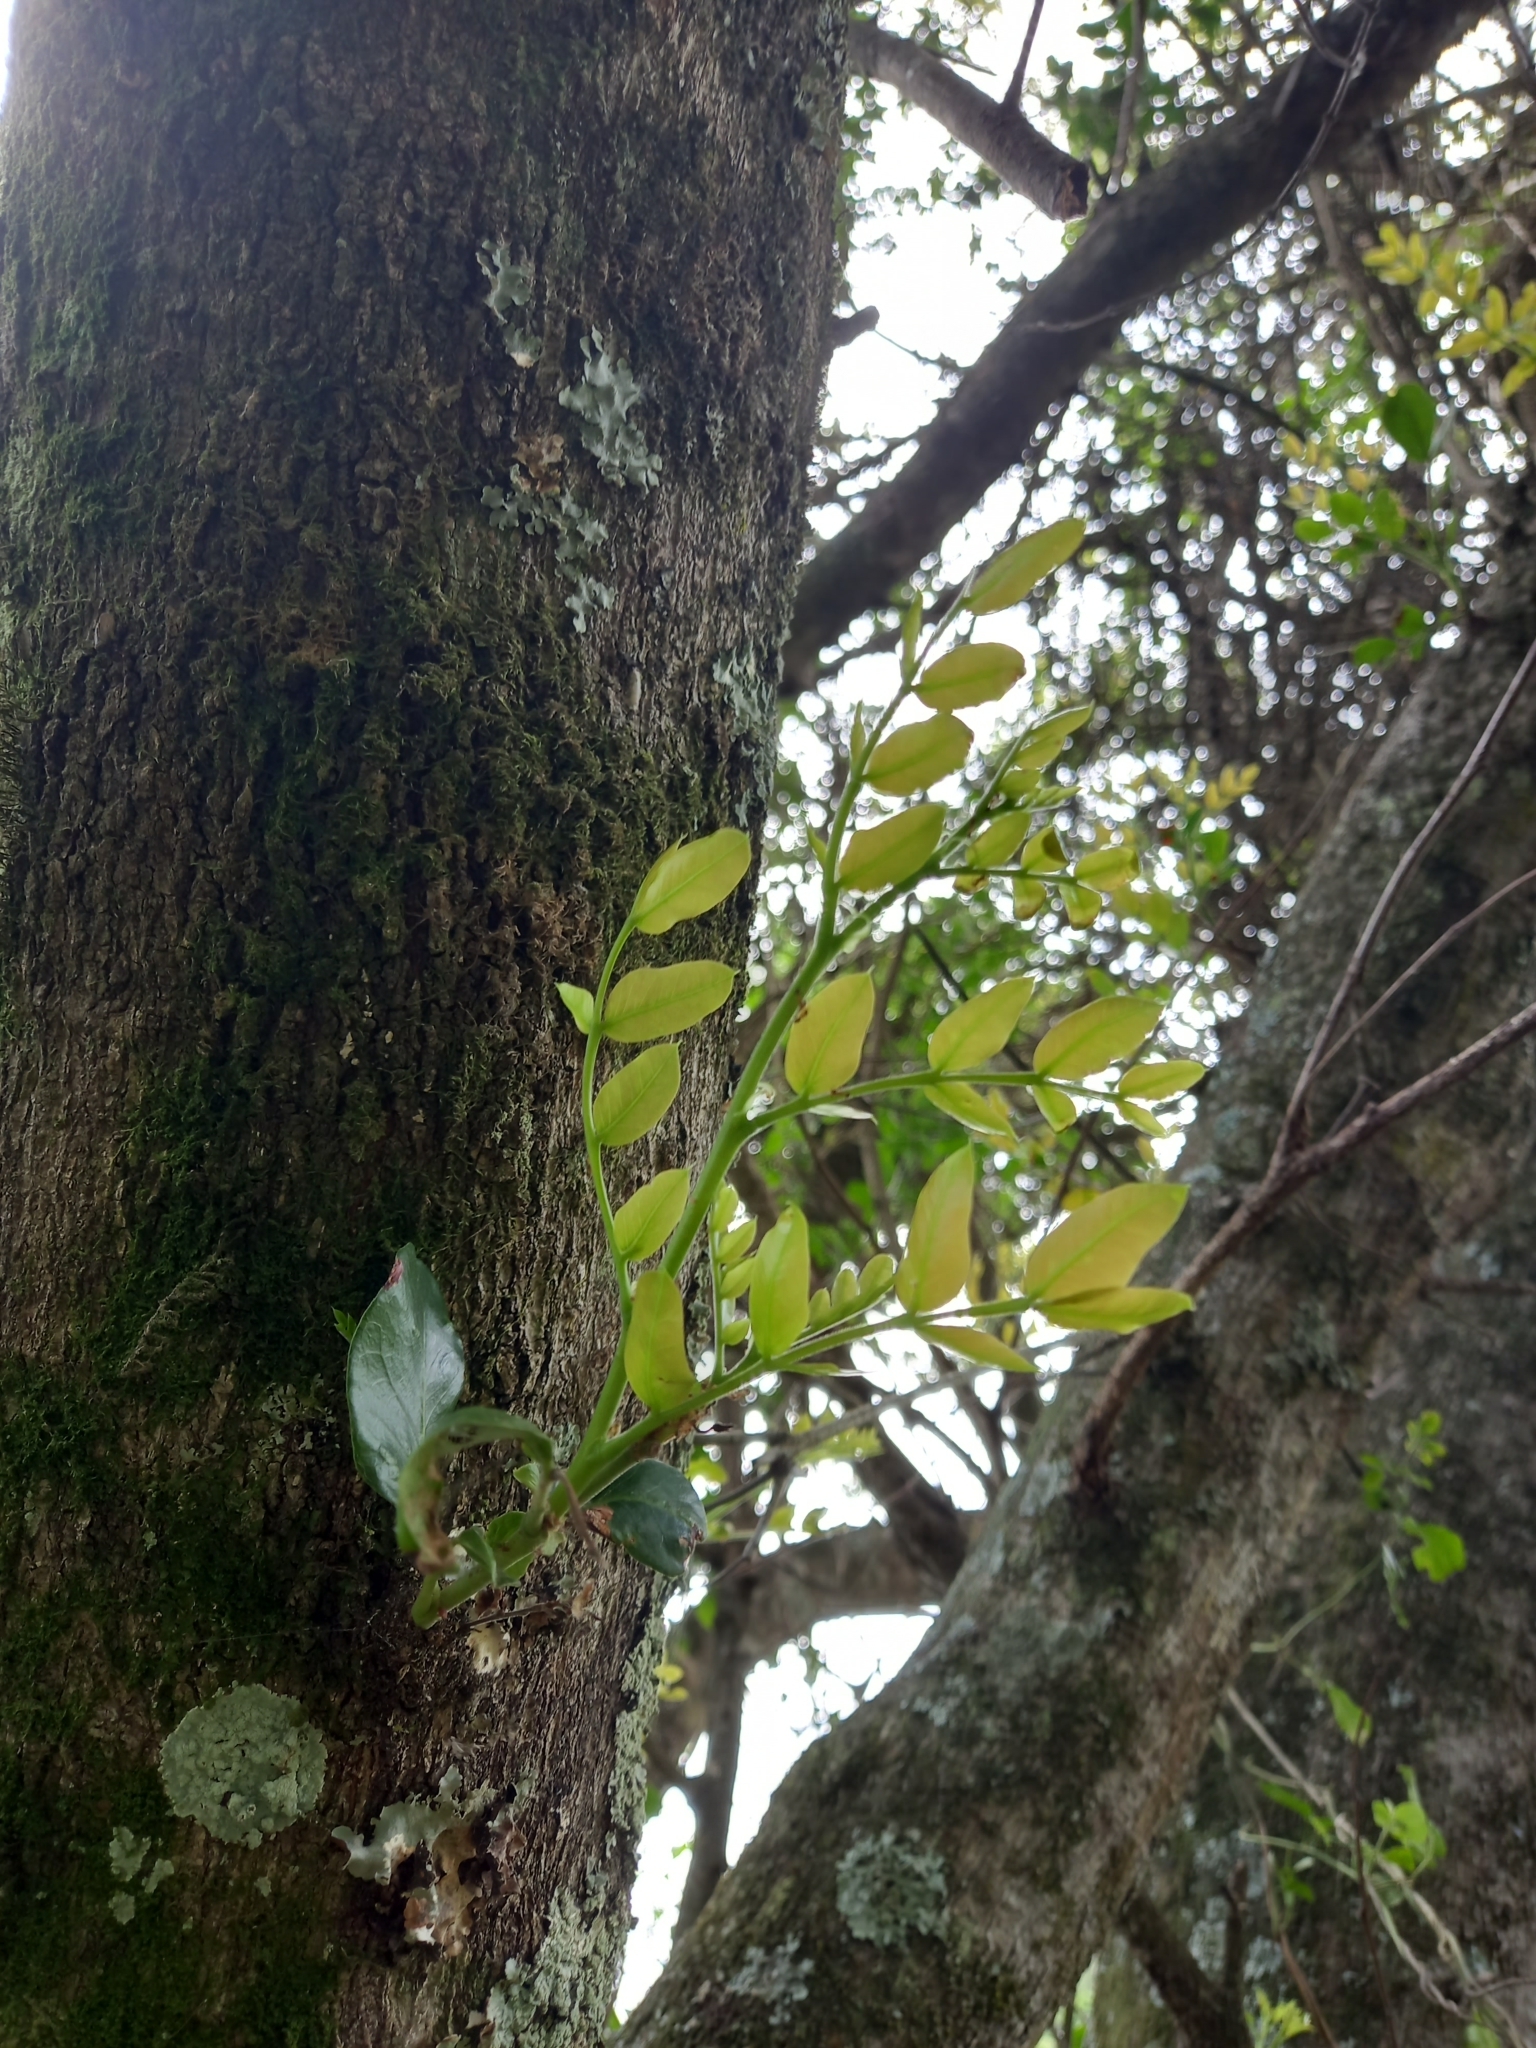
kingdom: Plantae
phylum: Tracheophyta
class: Magnoliopsida
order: Fabales
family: Fabaceae
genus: Schotia
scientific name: Schotia latifolia
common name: Bush boer-bean
